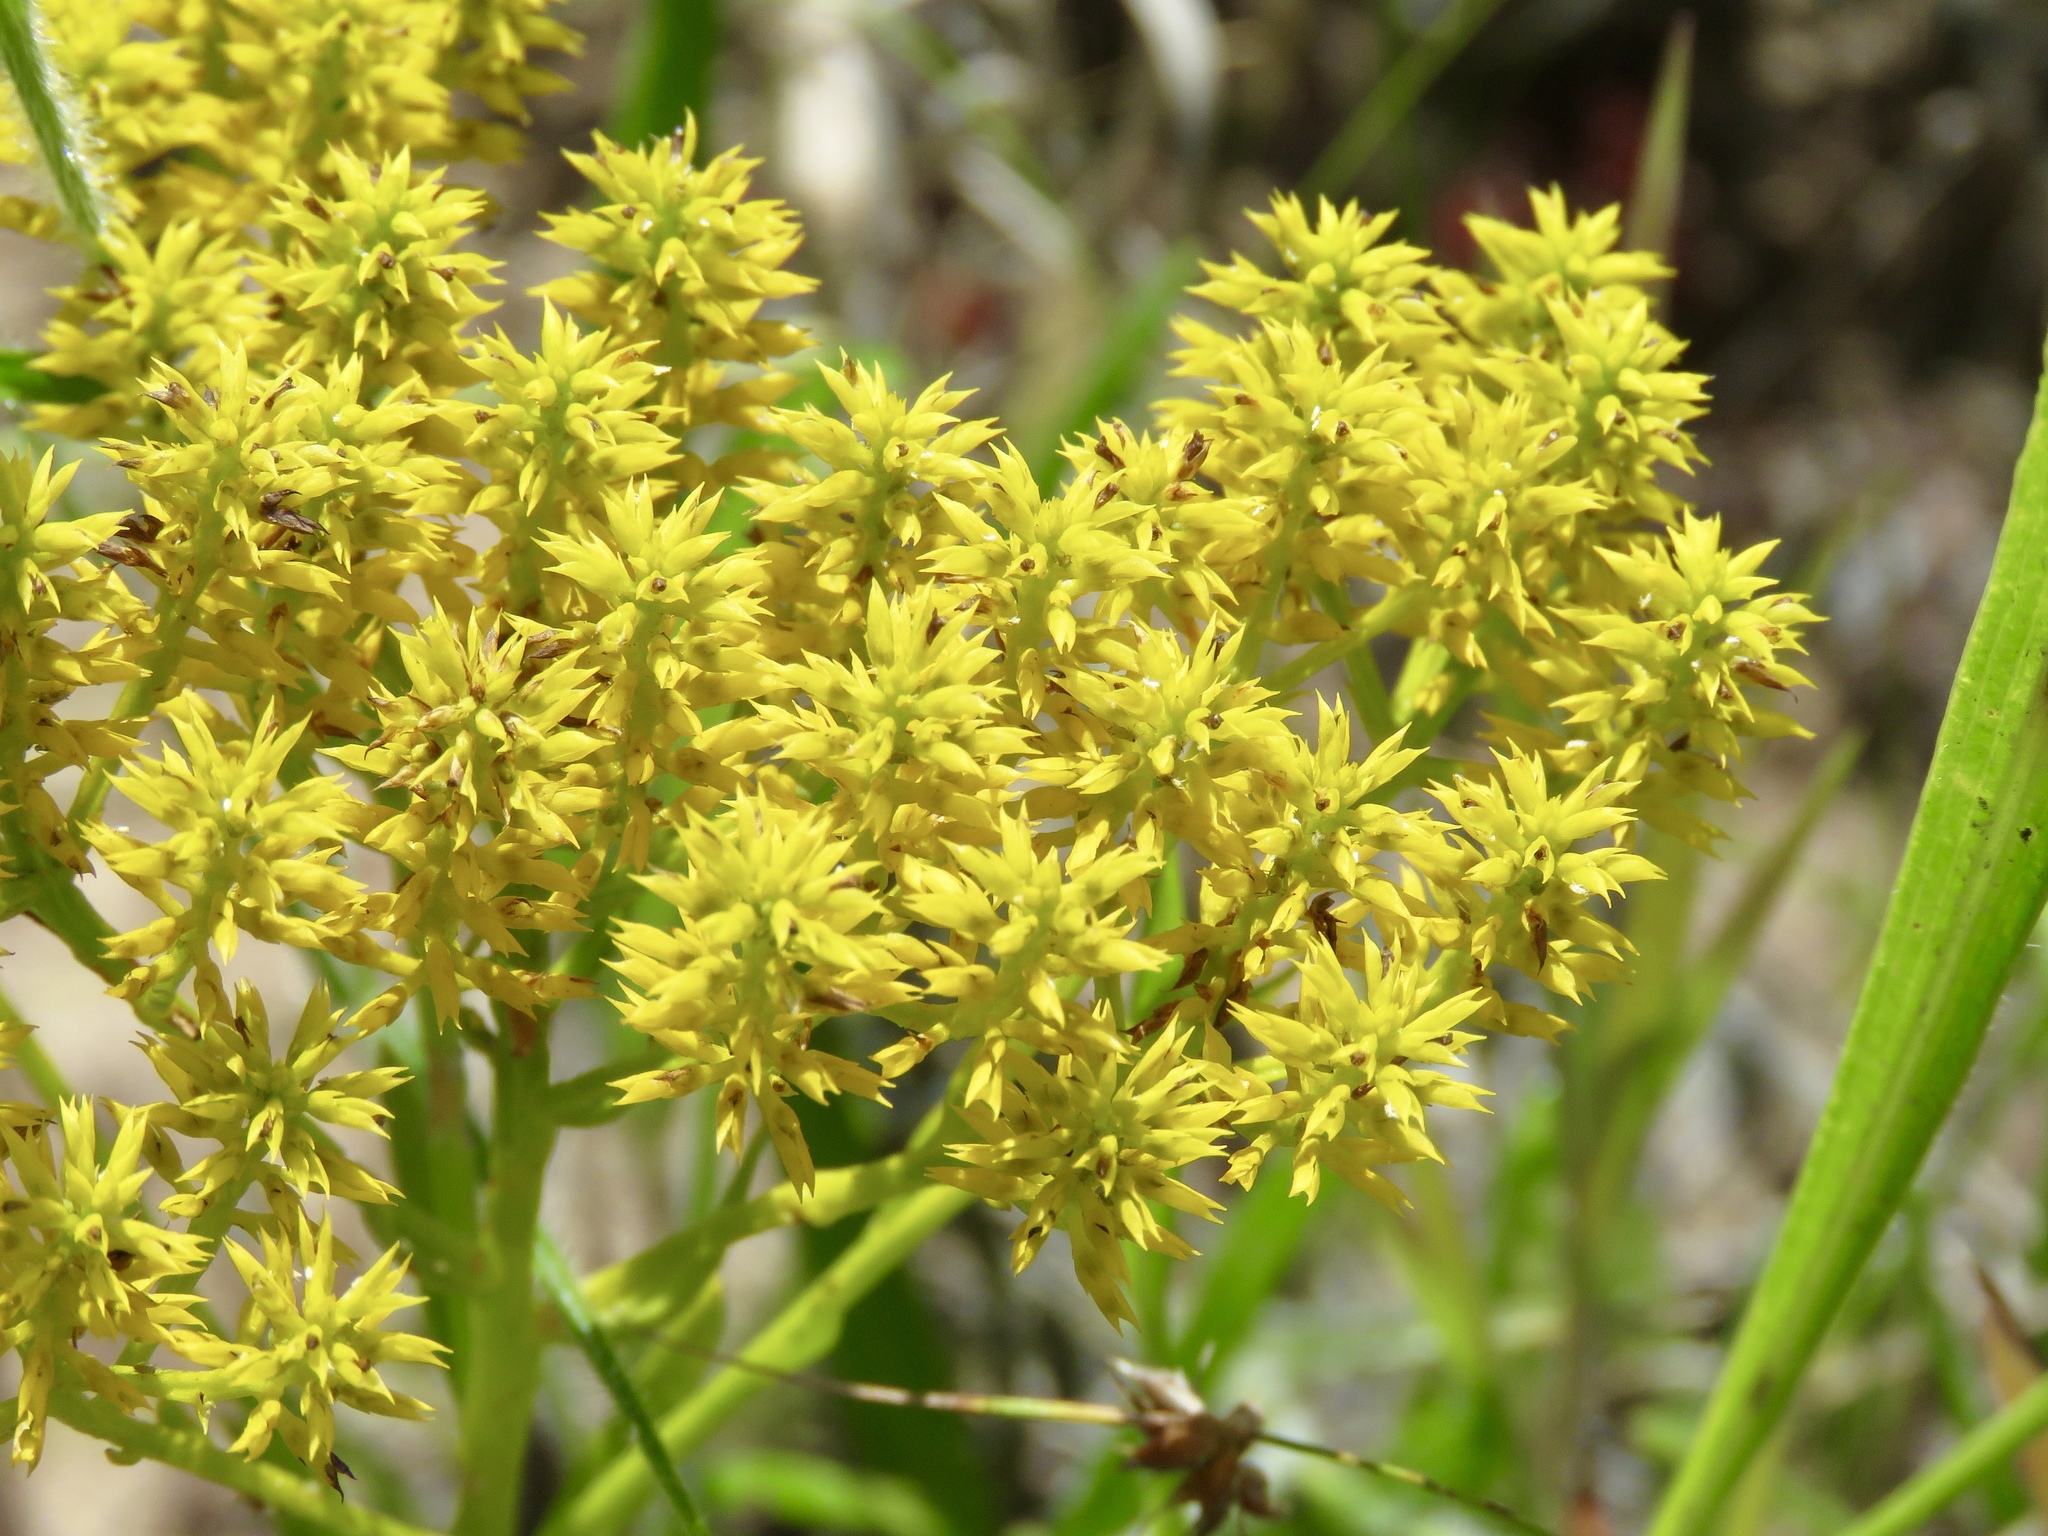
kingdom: Plantae
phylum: Tracheophyta
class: Magnoliopsida
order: Fabales
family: Polygalaceae
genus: Polygala
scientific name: Polygala ramosa
